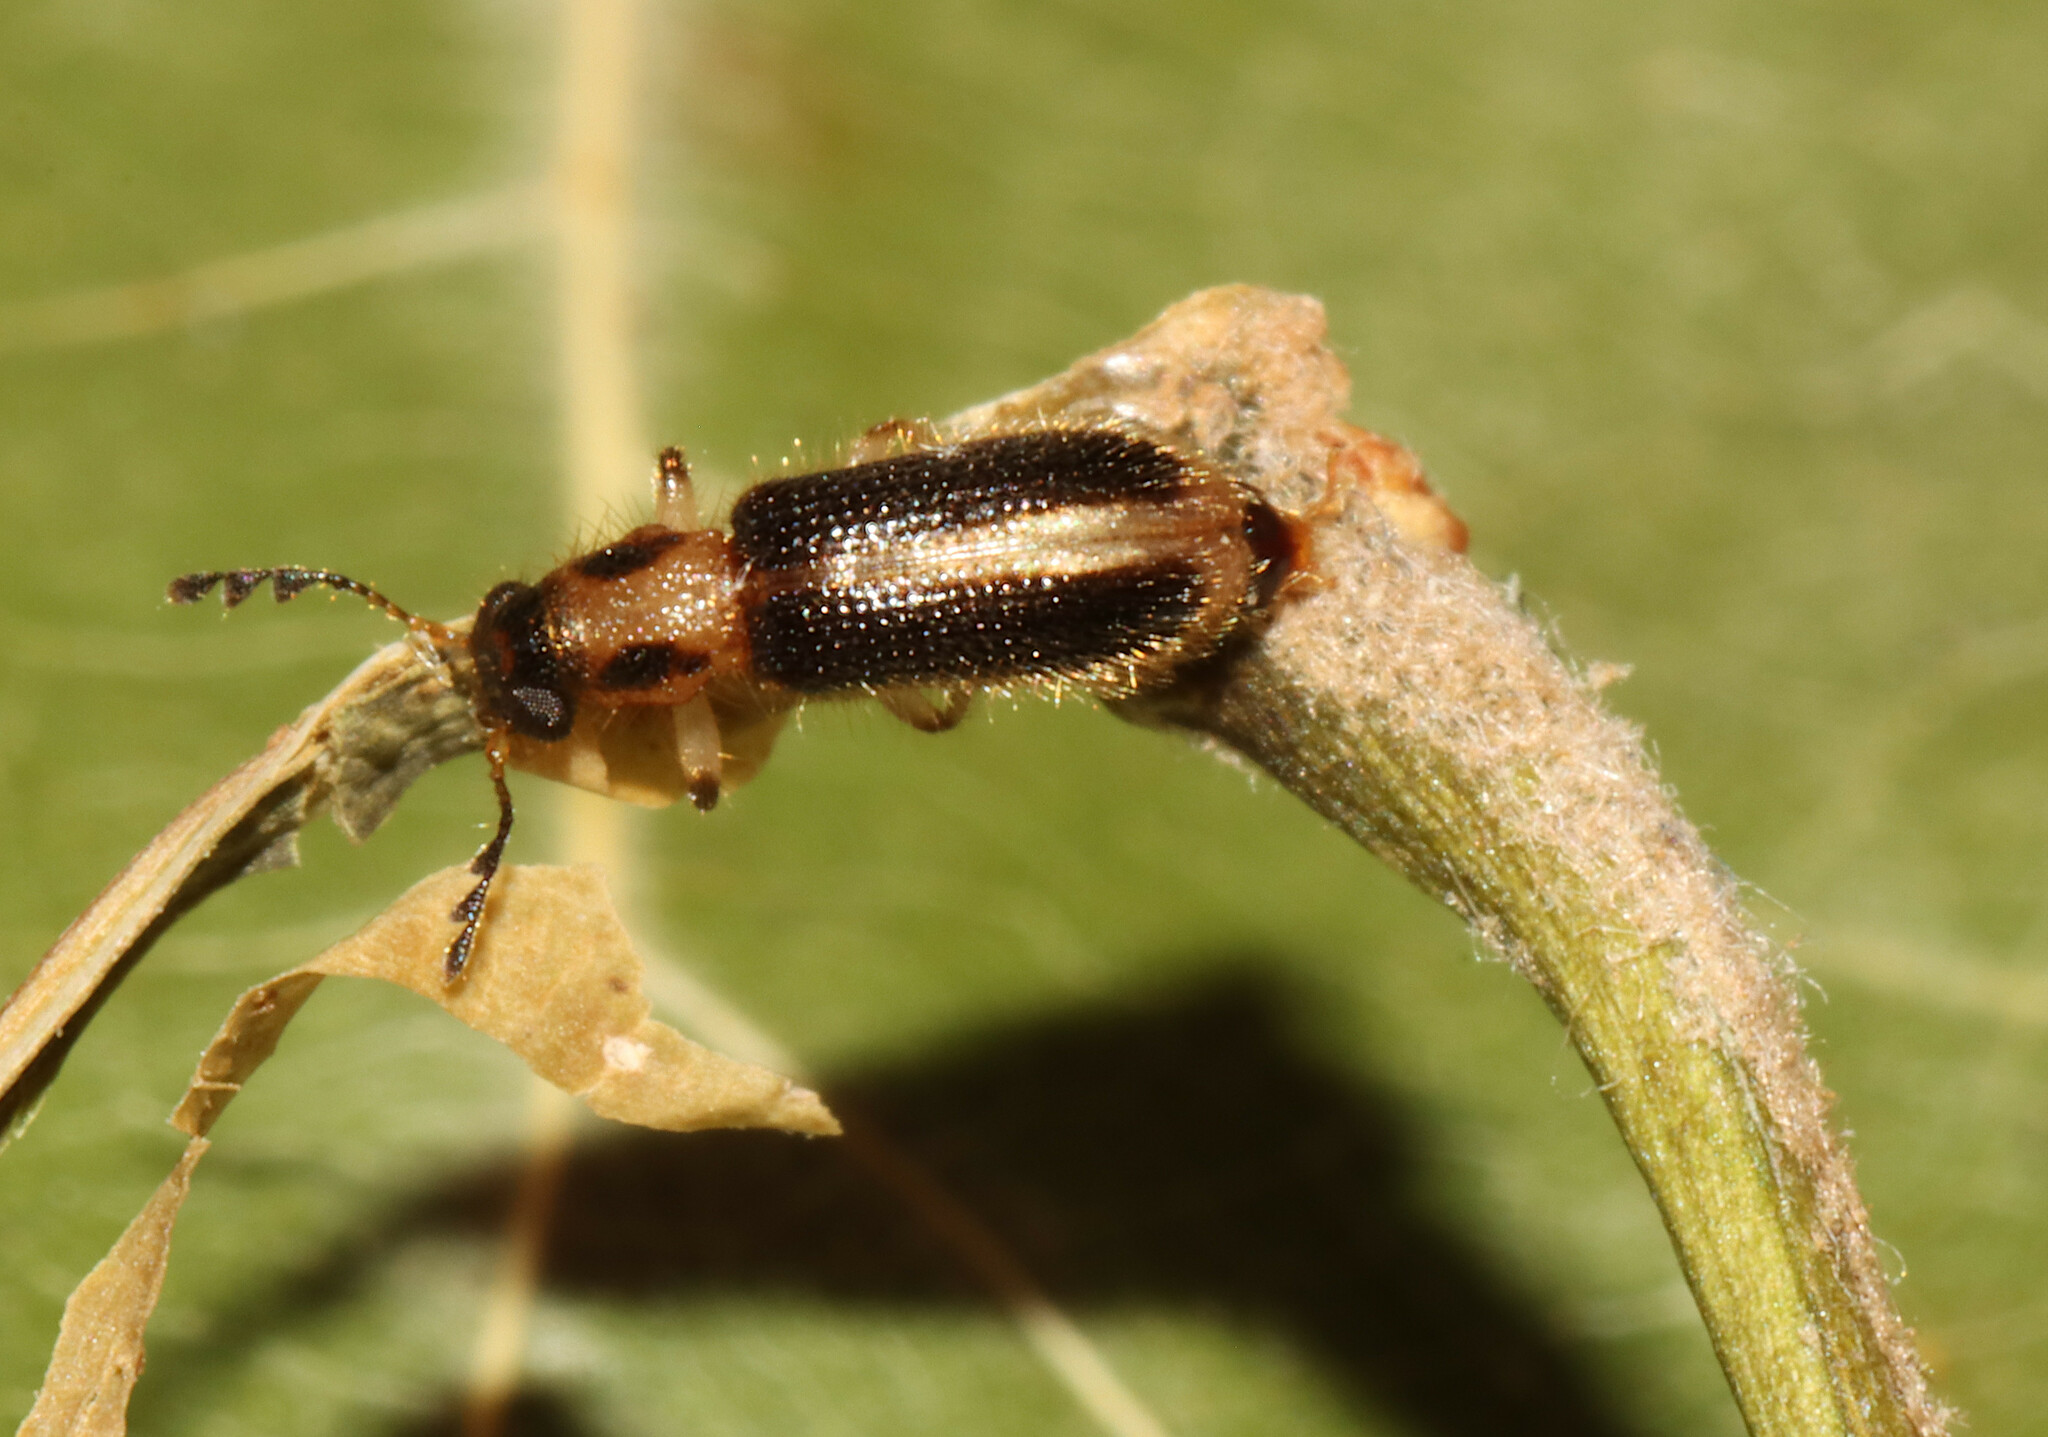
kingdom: Animalia
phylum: Arthropoda
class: Insecta
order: Coleoptera
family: Cleridae
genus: Cregya
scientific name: Cregya oculata
